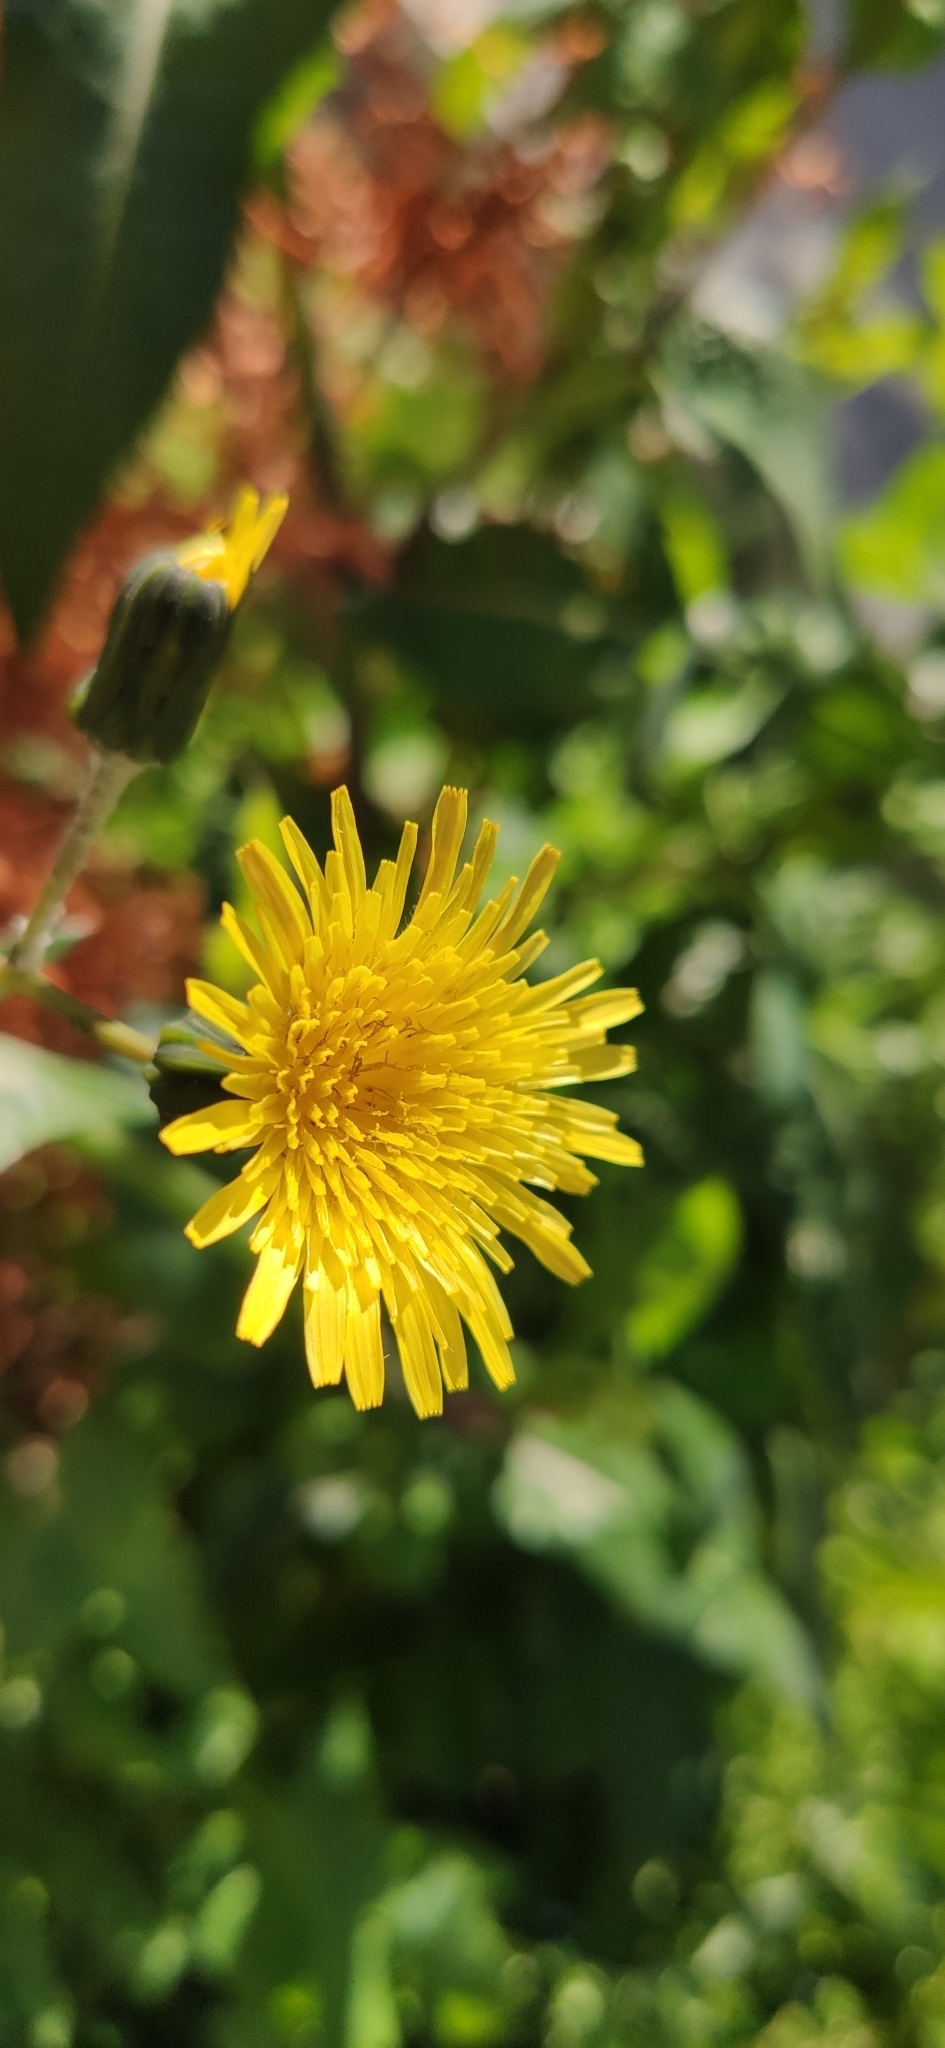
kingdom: Plantae
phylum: Tracheophyta
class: Magnoliopsida
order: Asterales
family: Asteraceae
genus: Sonchus
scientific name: Sonchus oleraceus
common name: Common sowthistle
